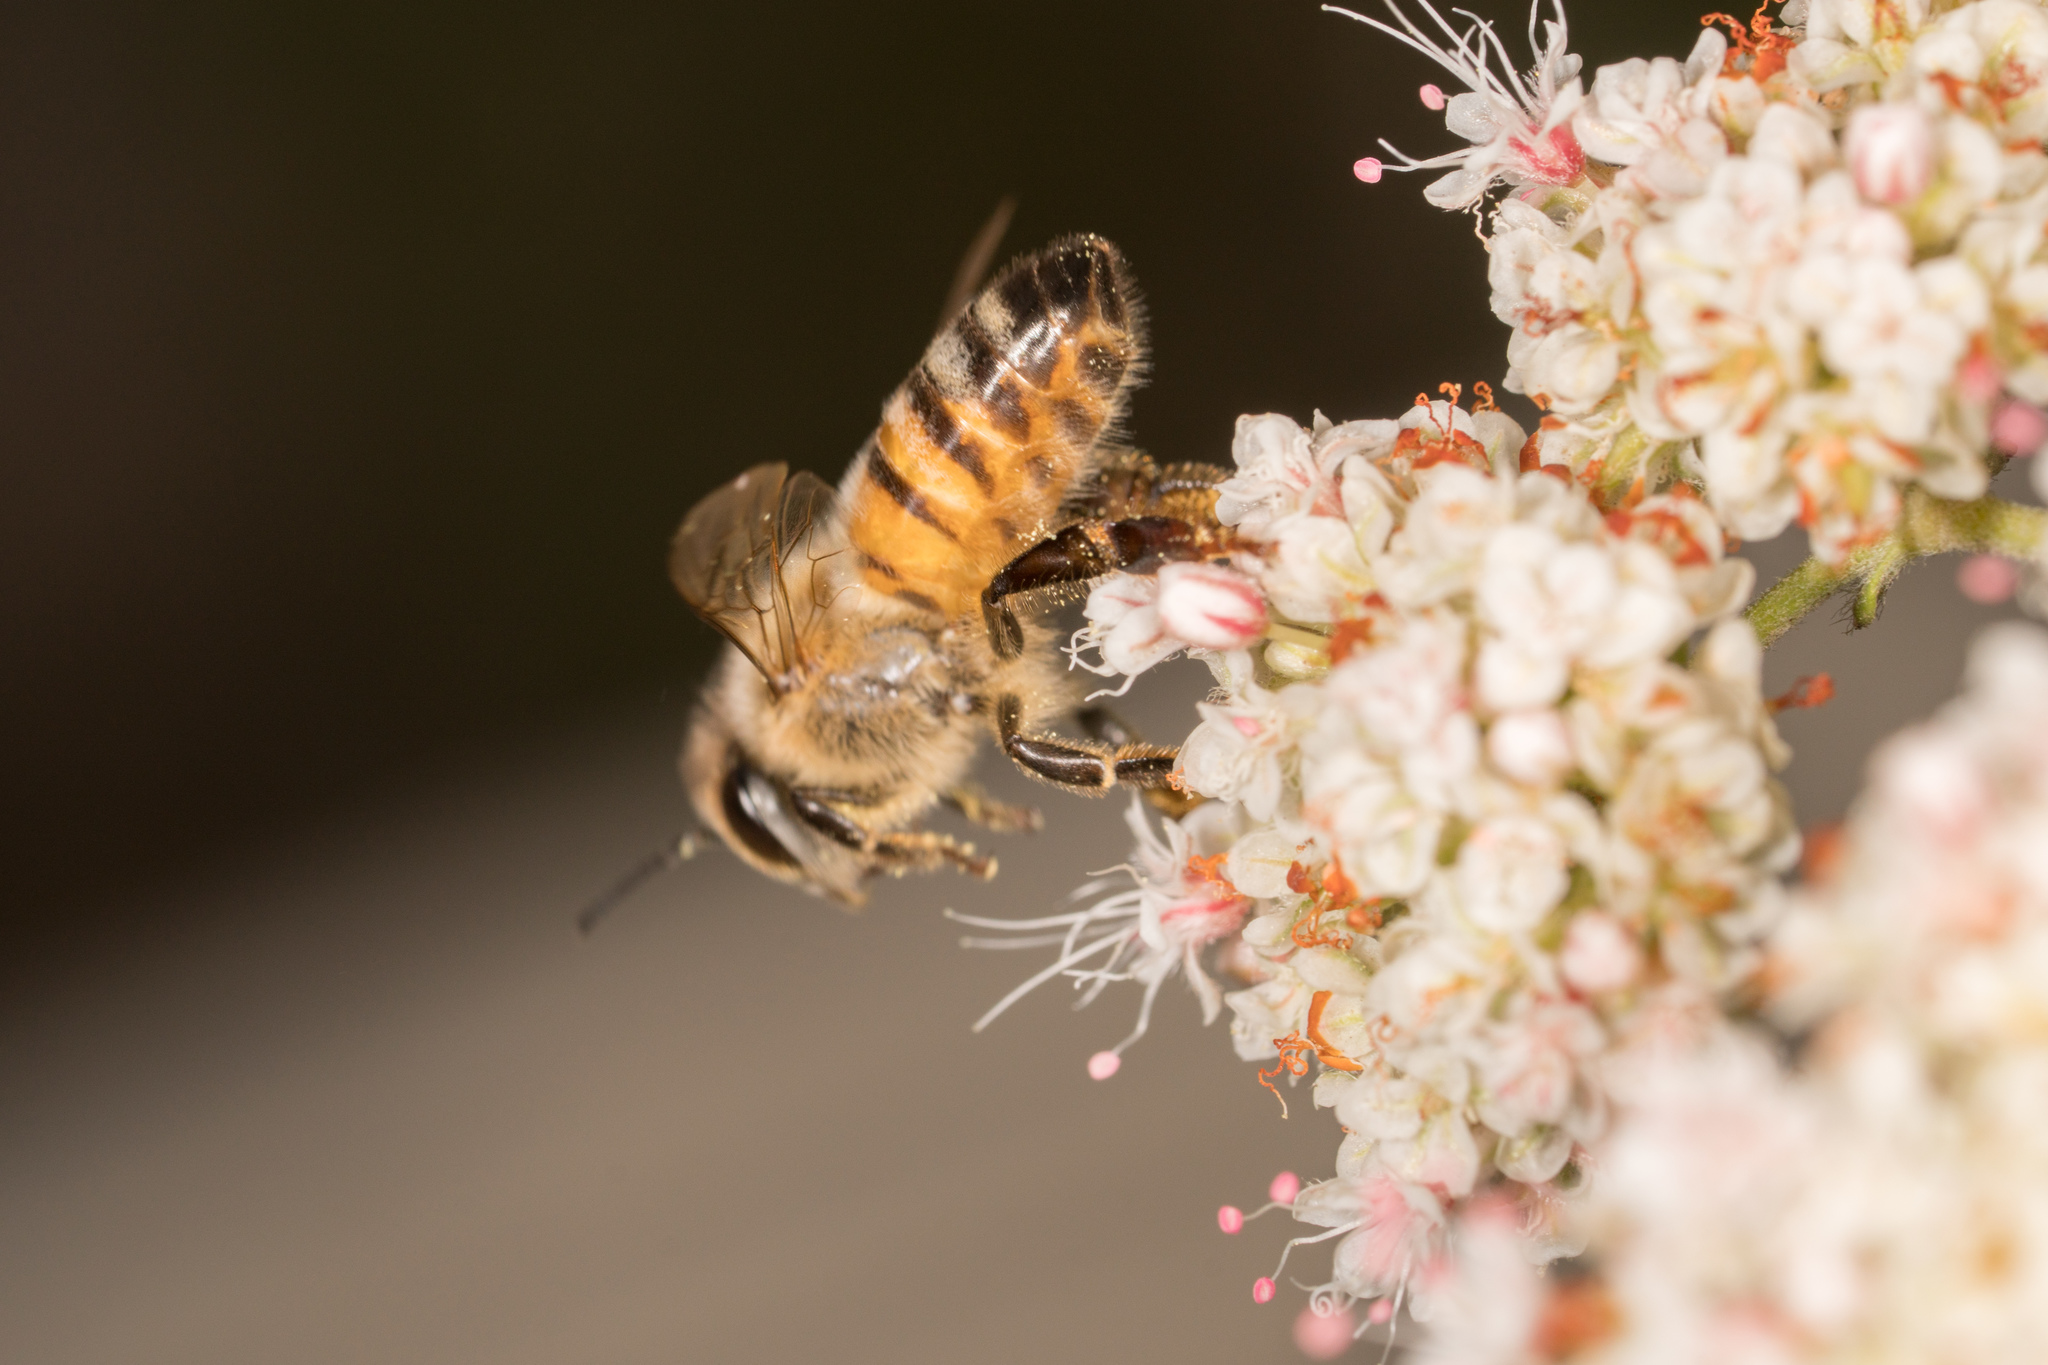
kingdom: Animalia
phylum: Arthropoda
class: Insecta
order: Hymenoptera
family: Apidae
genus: Apis
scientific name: Apis mellifera
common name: Honey bee
